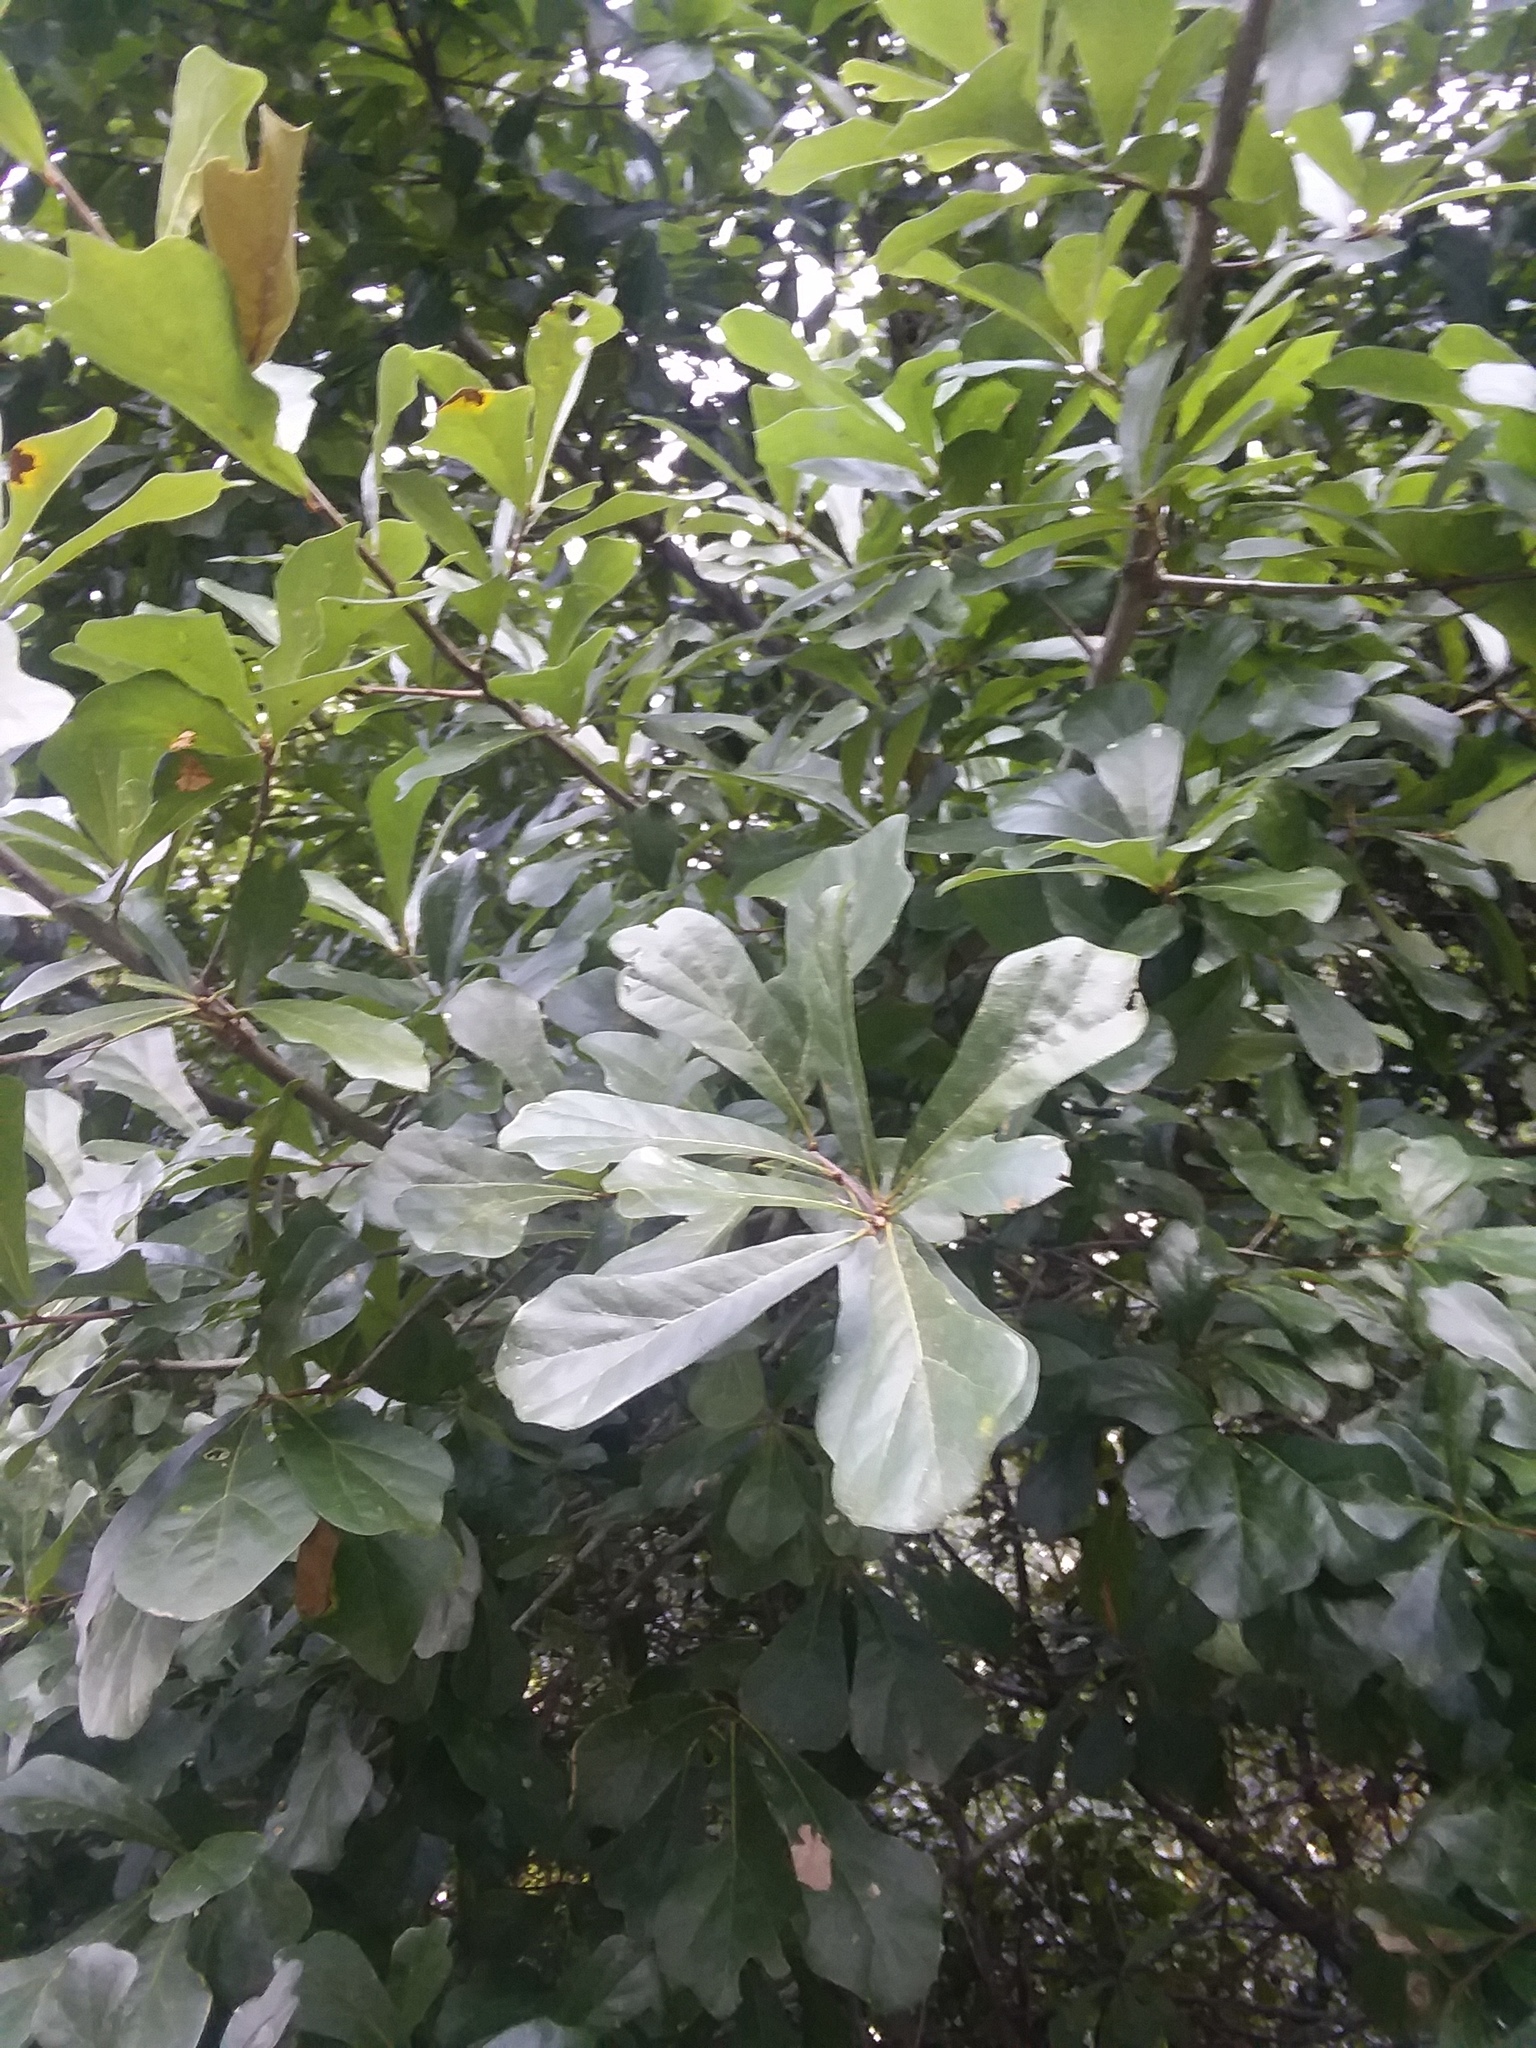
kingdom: Plantae
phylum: Tracheophyta
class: Magnoliopsida
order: Fagales
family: Fagaceae
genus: Quercus
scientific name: Quercus nigra
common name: Water oak
